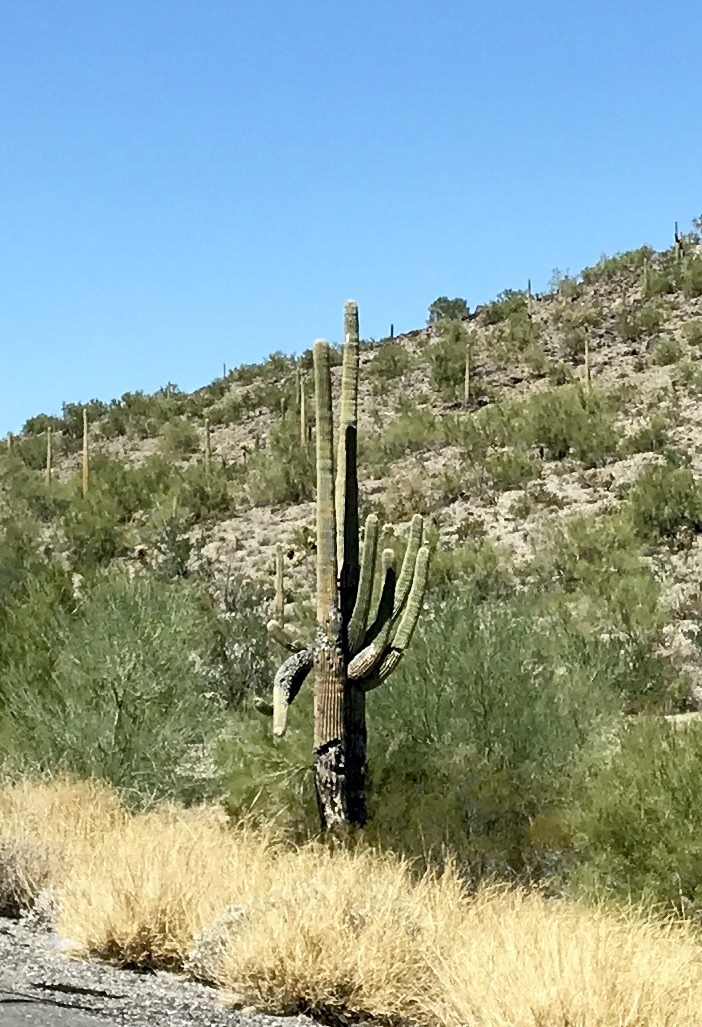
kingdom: Plantae
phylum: Tracheophyta
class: Magnoliopsida
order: Caryophyllales
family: Cactaceae
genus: Carnegiea
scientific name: Carnegiea gigantea
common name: Saguaro
